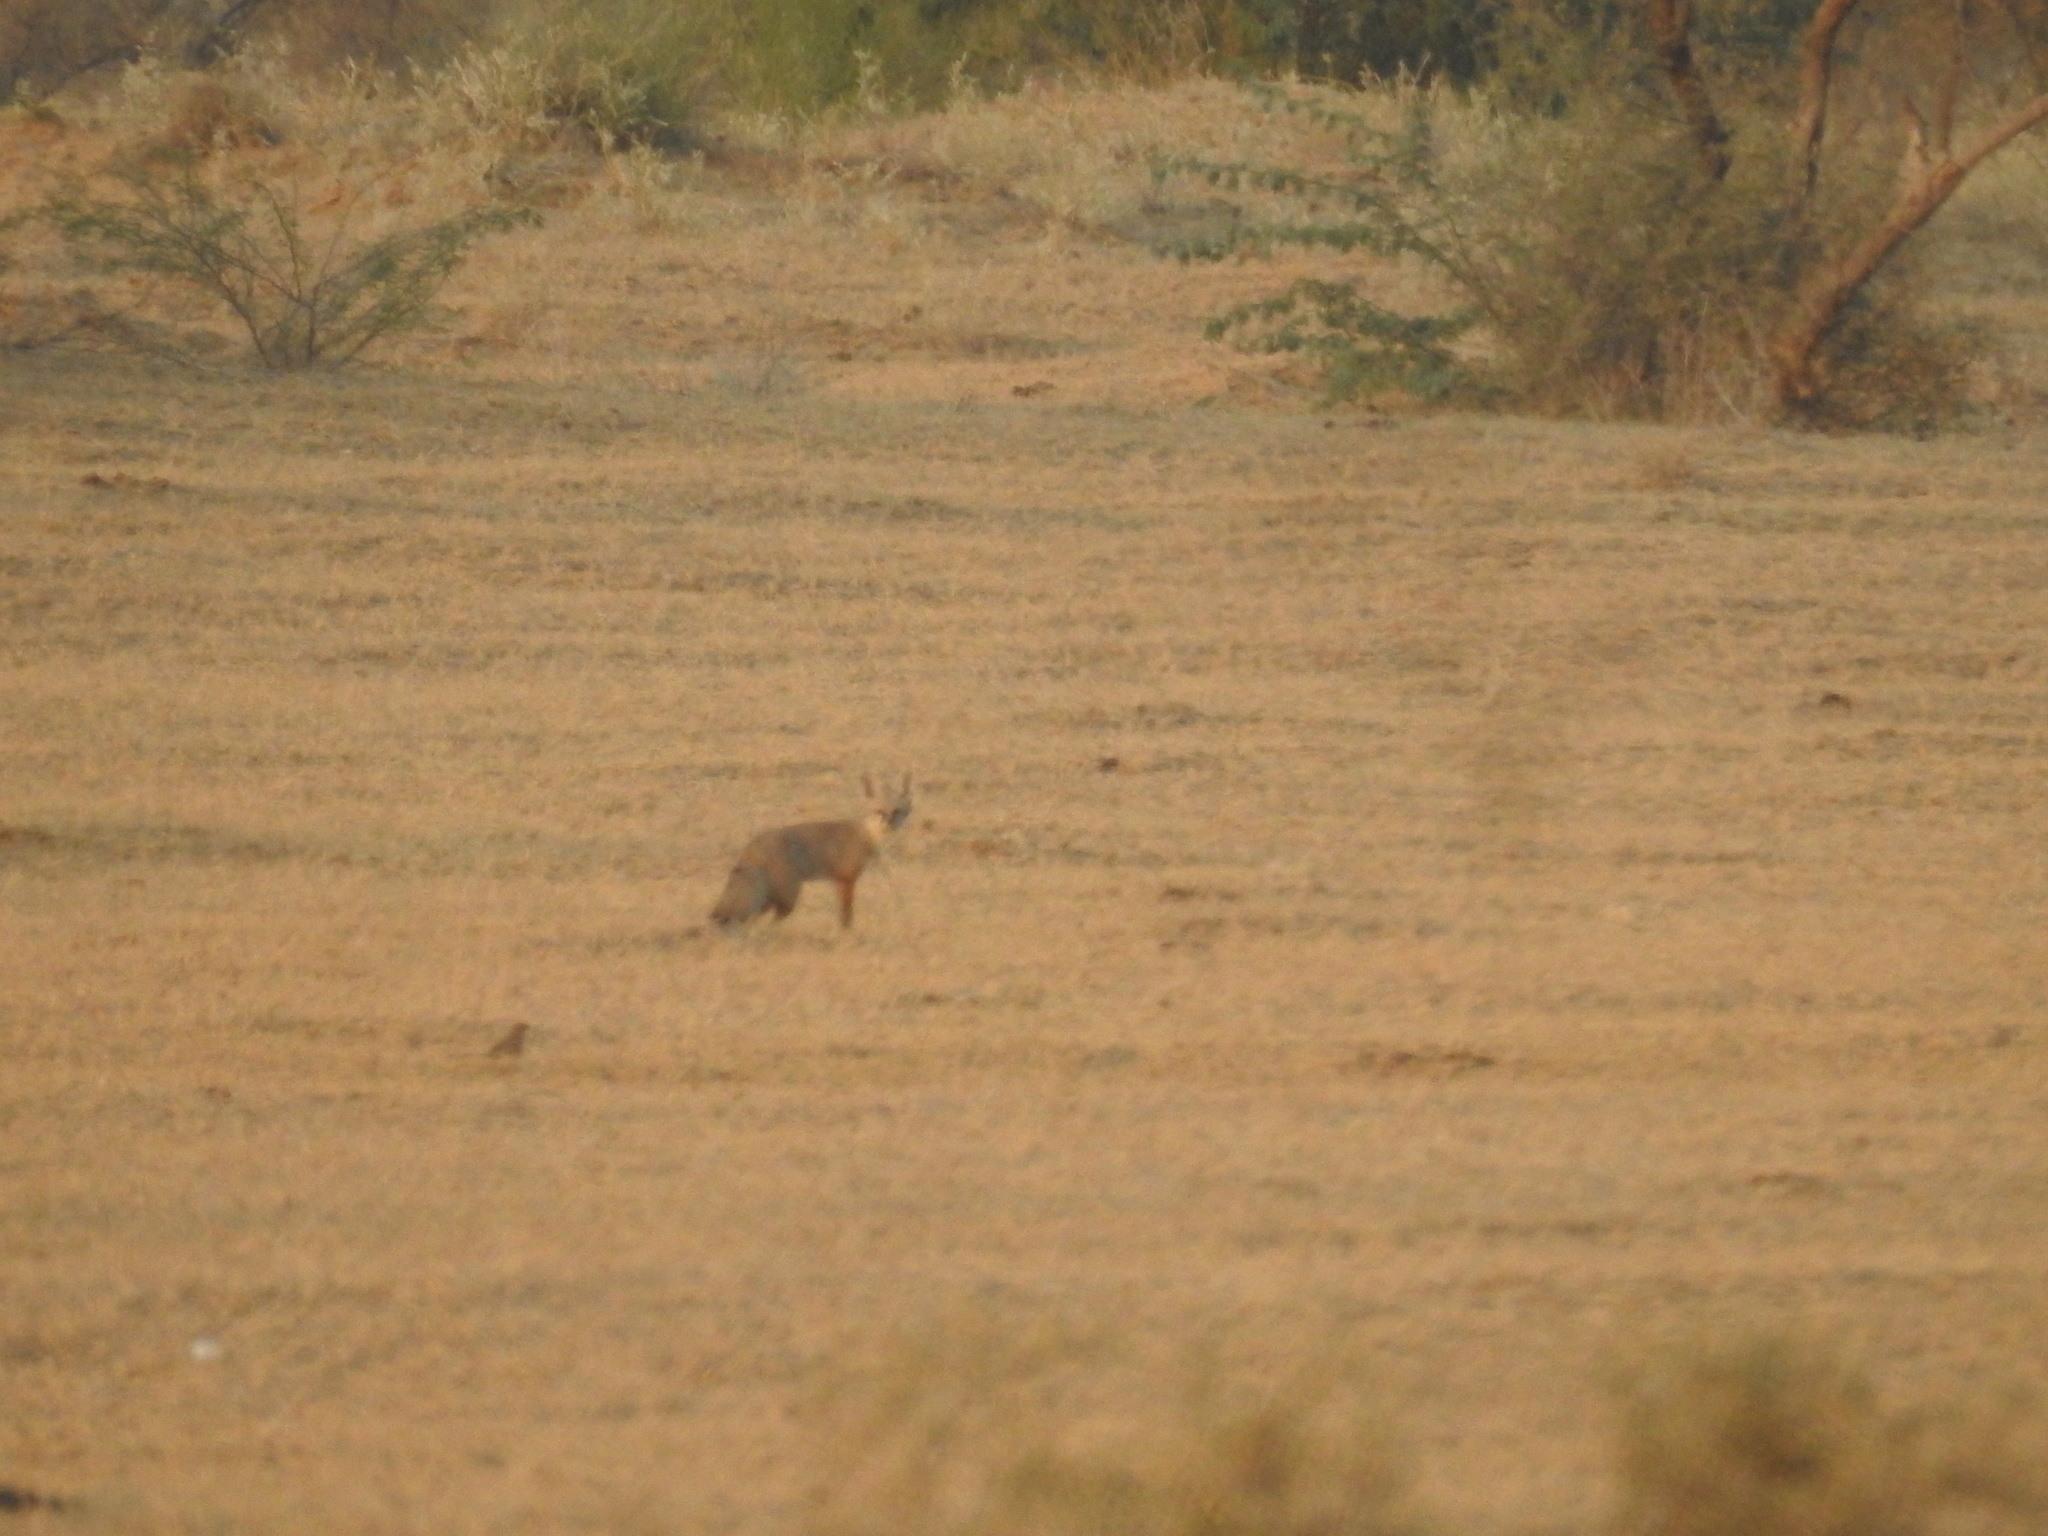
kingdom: Animalia
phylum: Chordata
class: Mammalia
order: Carnivora
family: Canidae
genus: Vulpes
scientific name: Vulpes bengalensis
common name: Bengal fox
